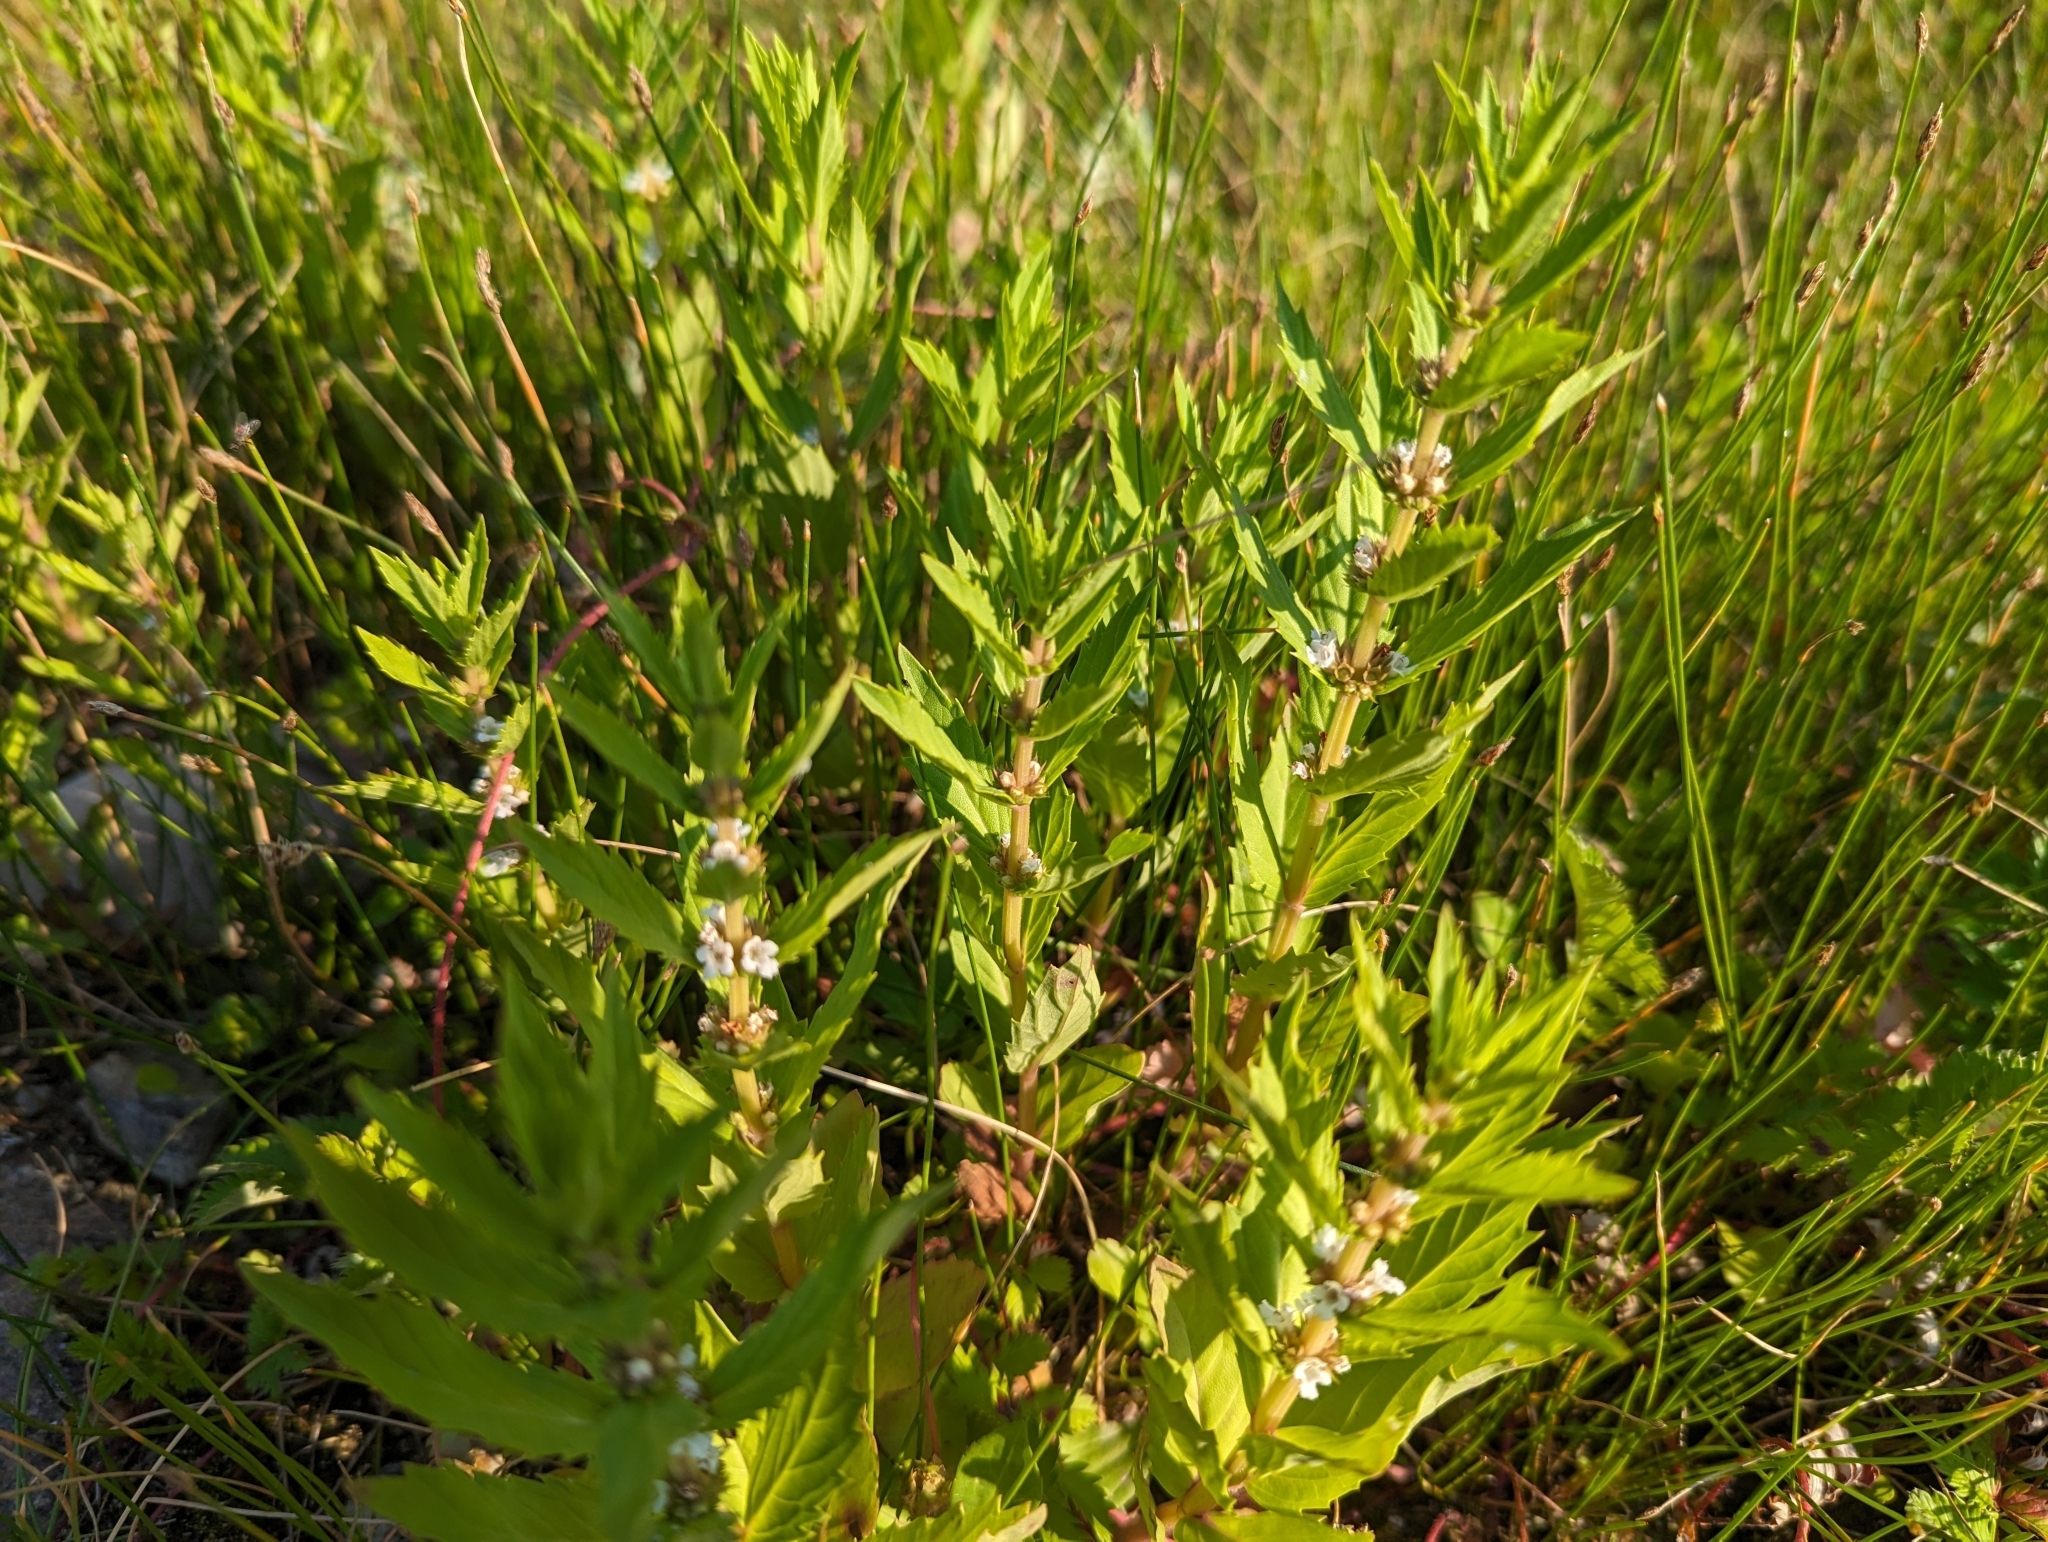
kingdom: Plantae
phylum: Tracheophyta
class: Magnoliopsida
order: Lamiales
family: Lamiaceae
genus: Lycopus
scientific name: Lycopus asper
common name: Rough water-horehound
